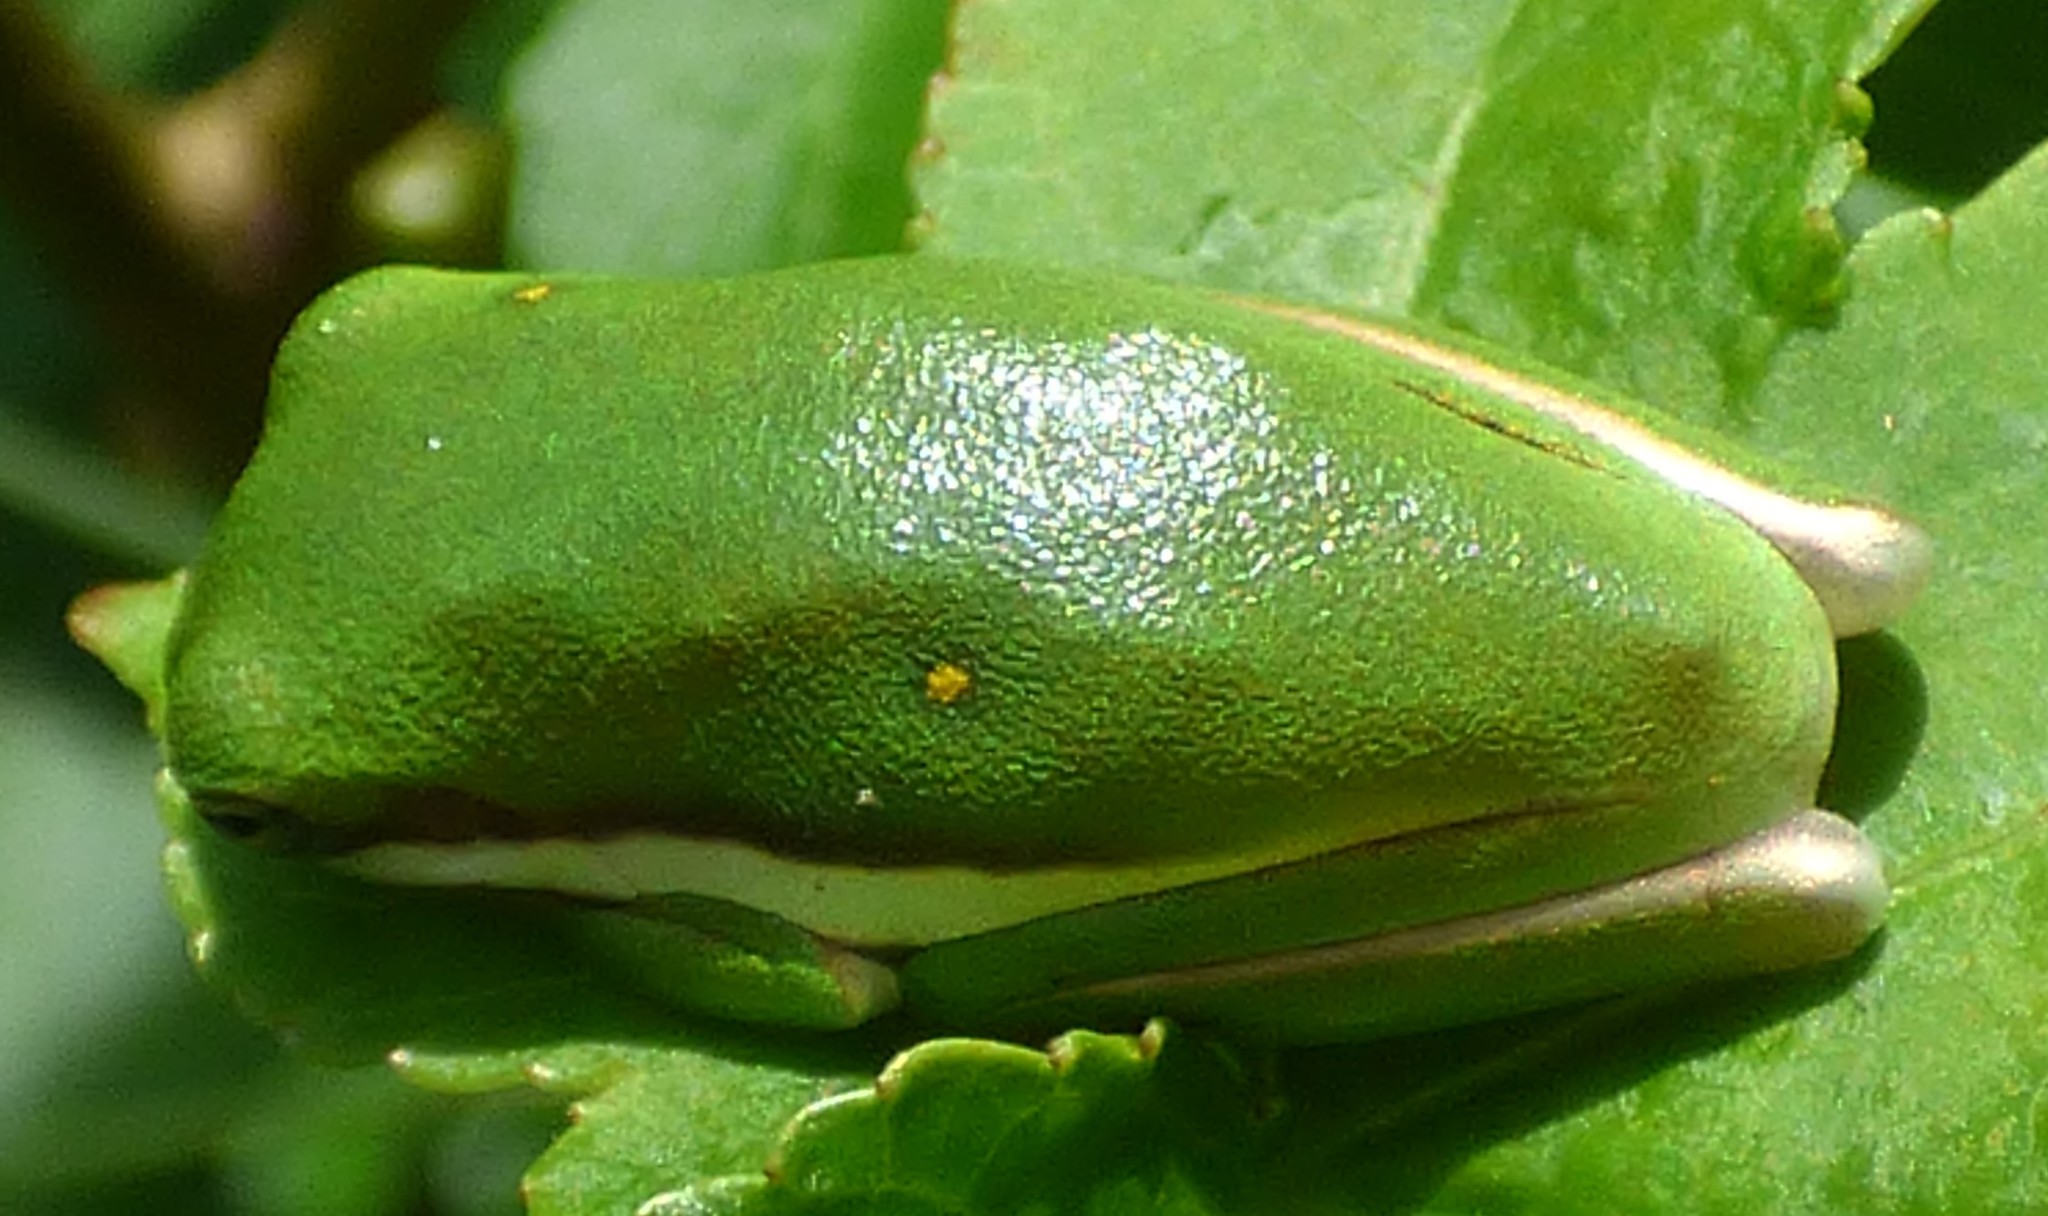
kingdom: Animalia
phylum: Chordata
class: Amphibia
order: Anura
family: Hylidae
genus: Dryophytes
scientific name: Dryophytes cinereus
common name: Green treefrog
